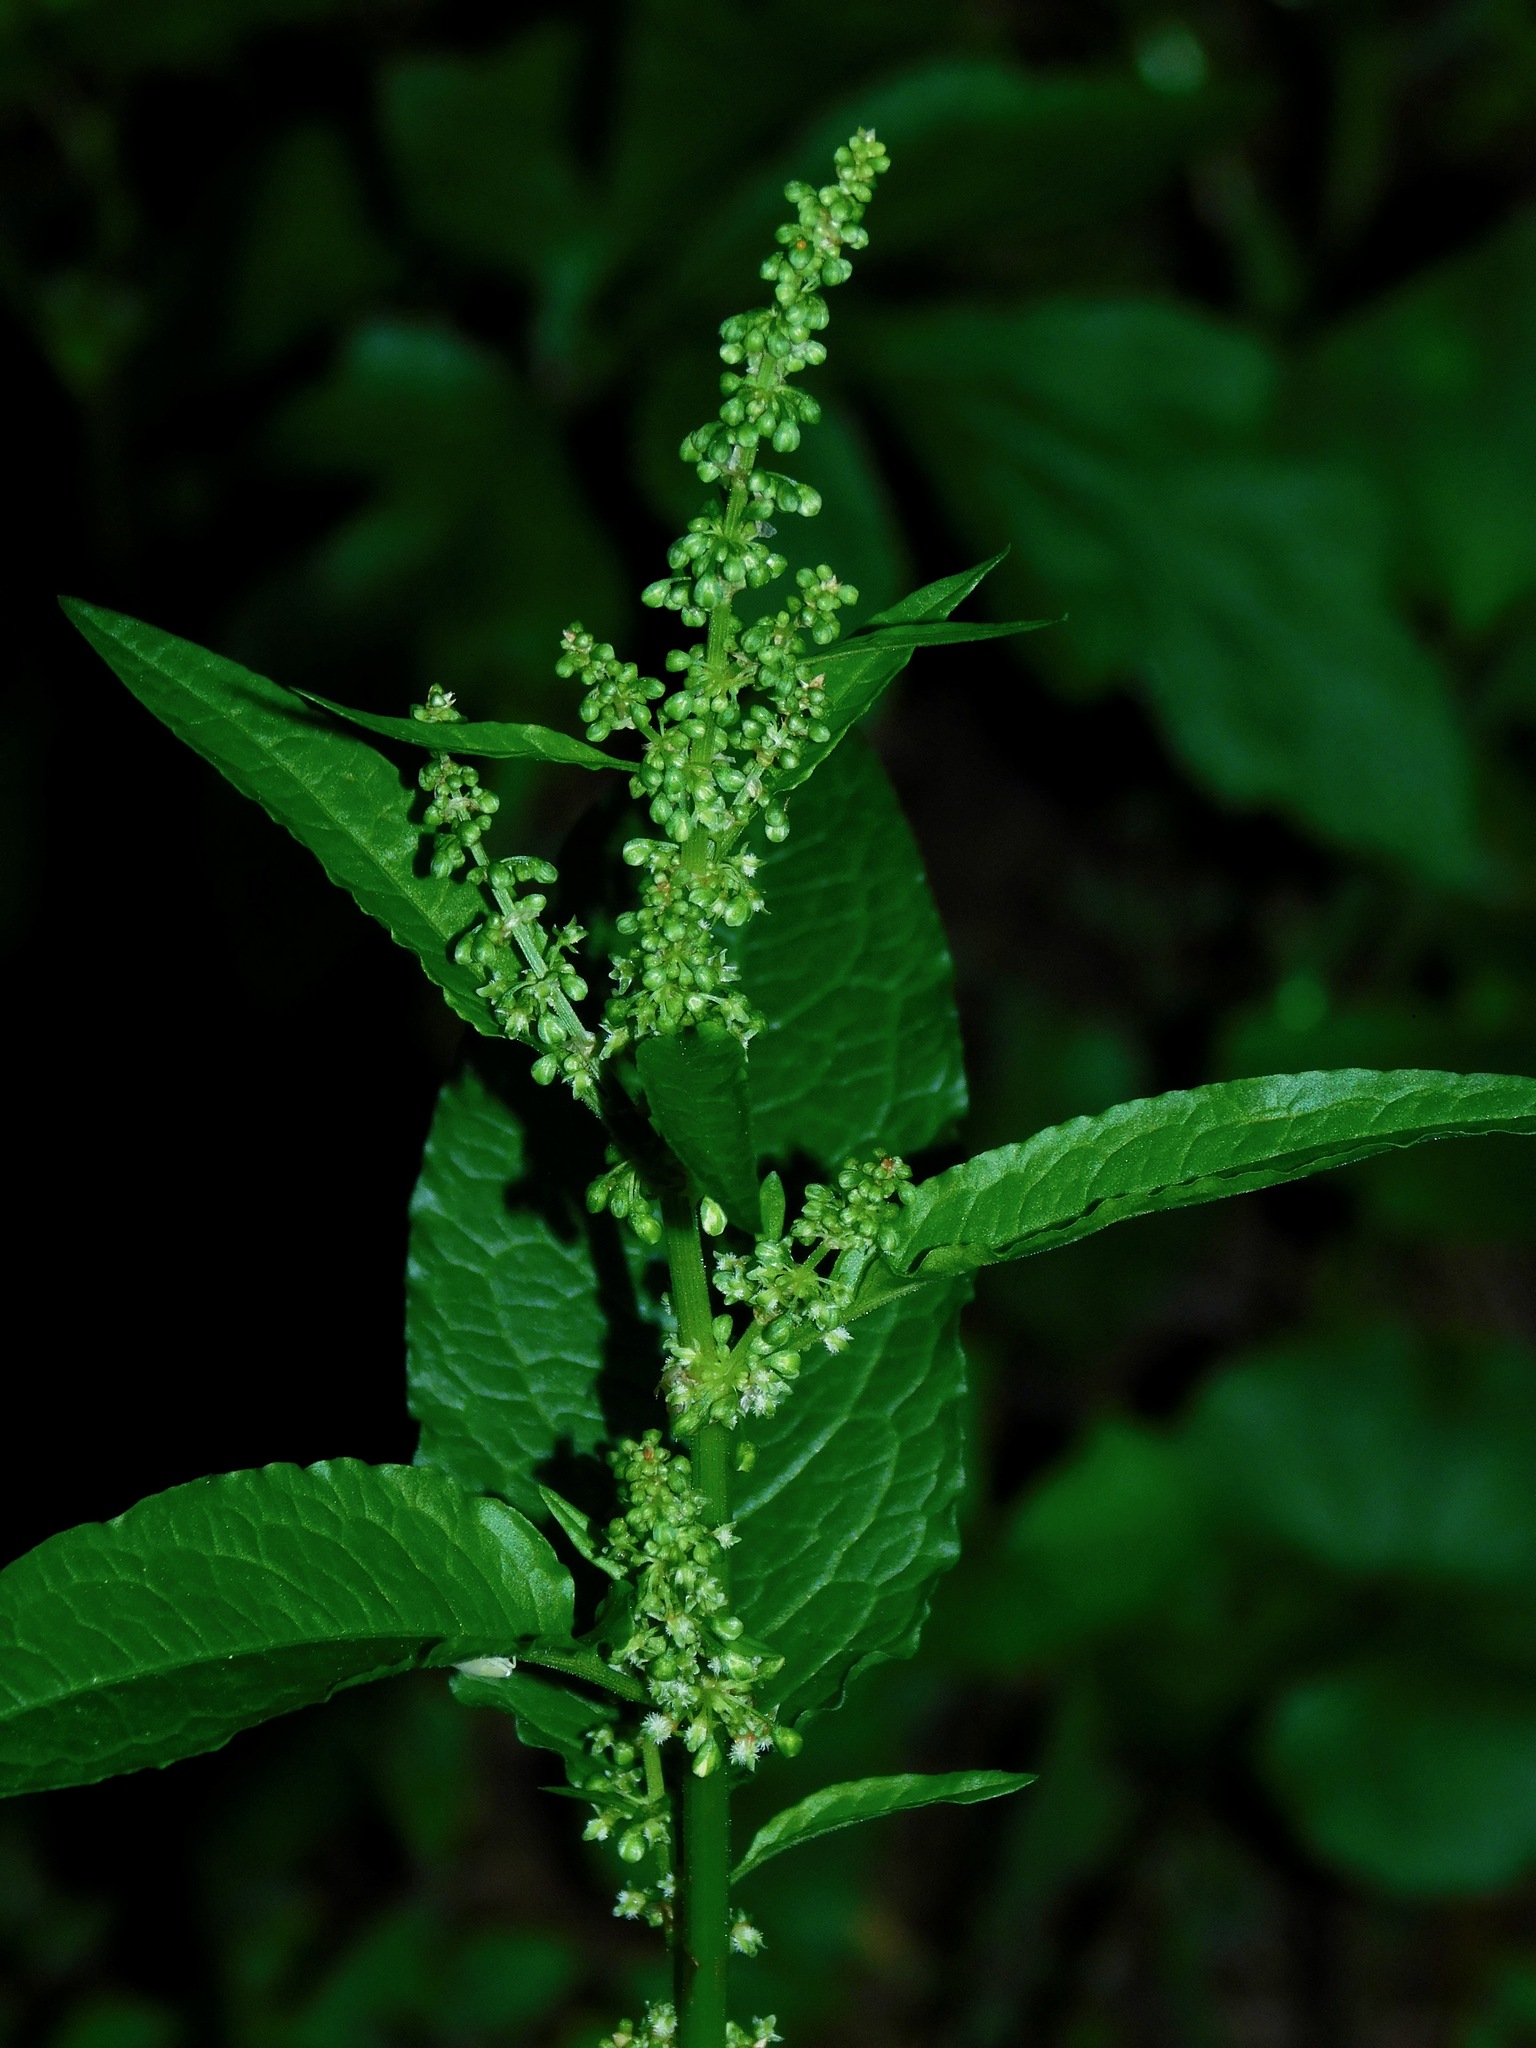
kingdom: Plantae
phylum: Tracheophyta
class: Magnoliopsida
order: Caryophyllales
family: Polygonaceae
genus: Rumex
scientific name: Rumex obtusifolius
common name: Bitter dock
